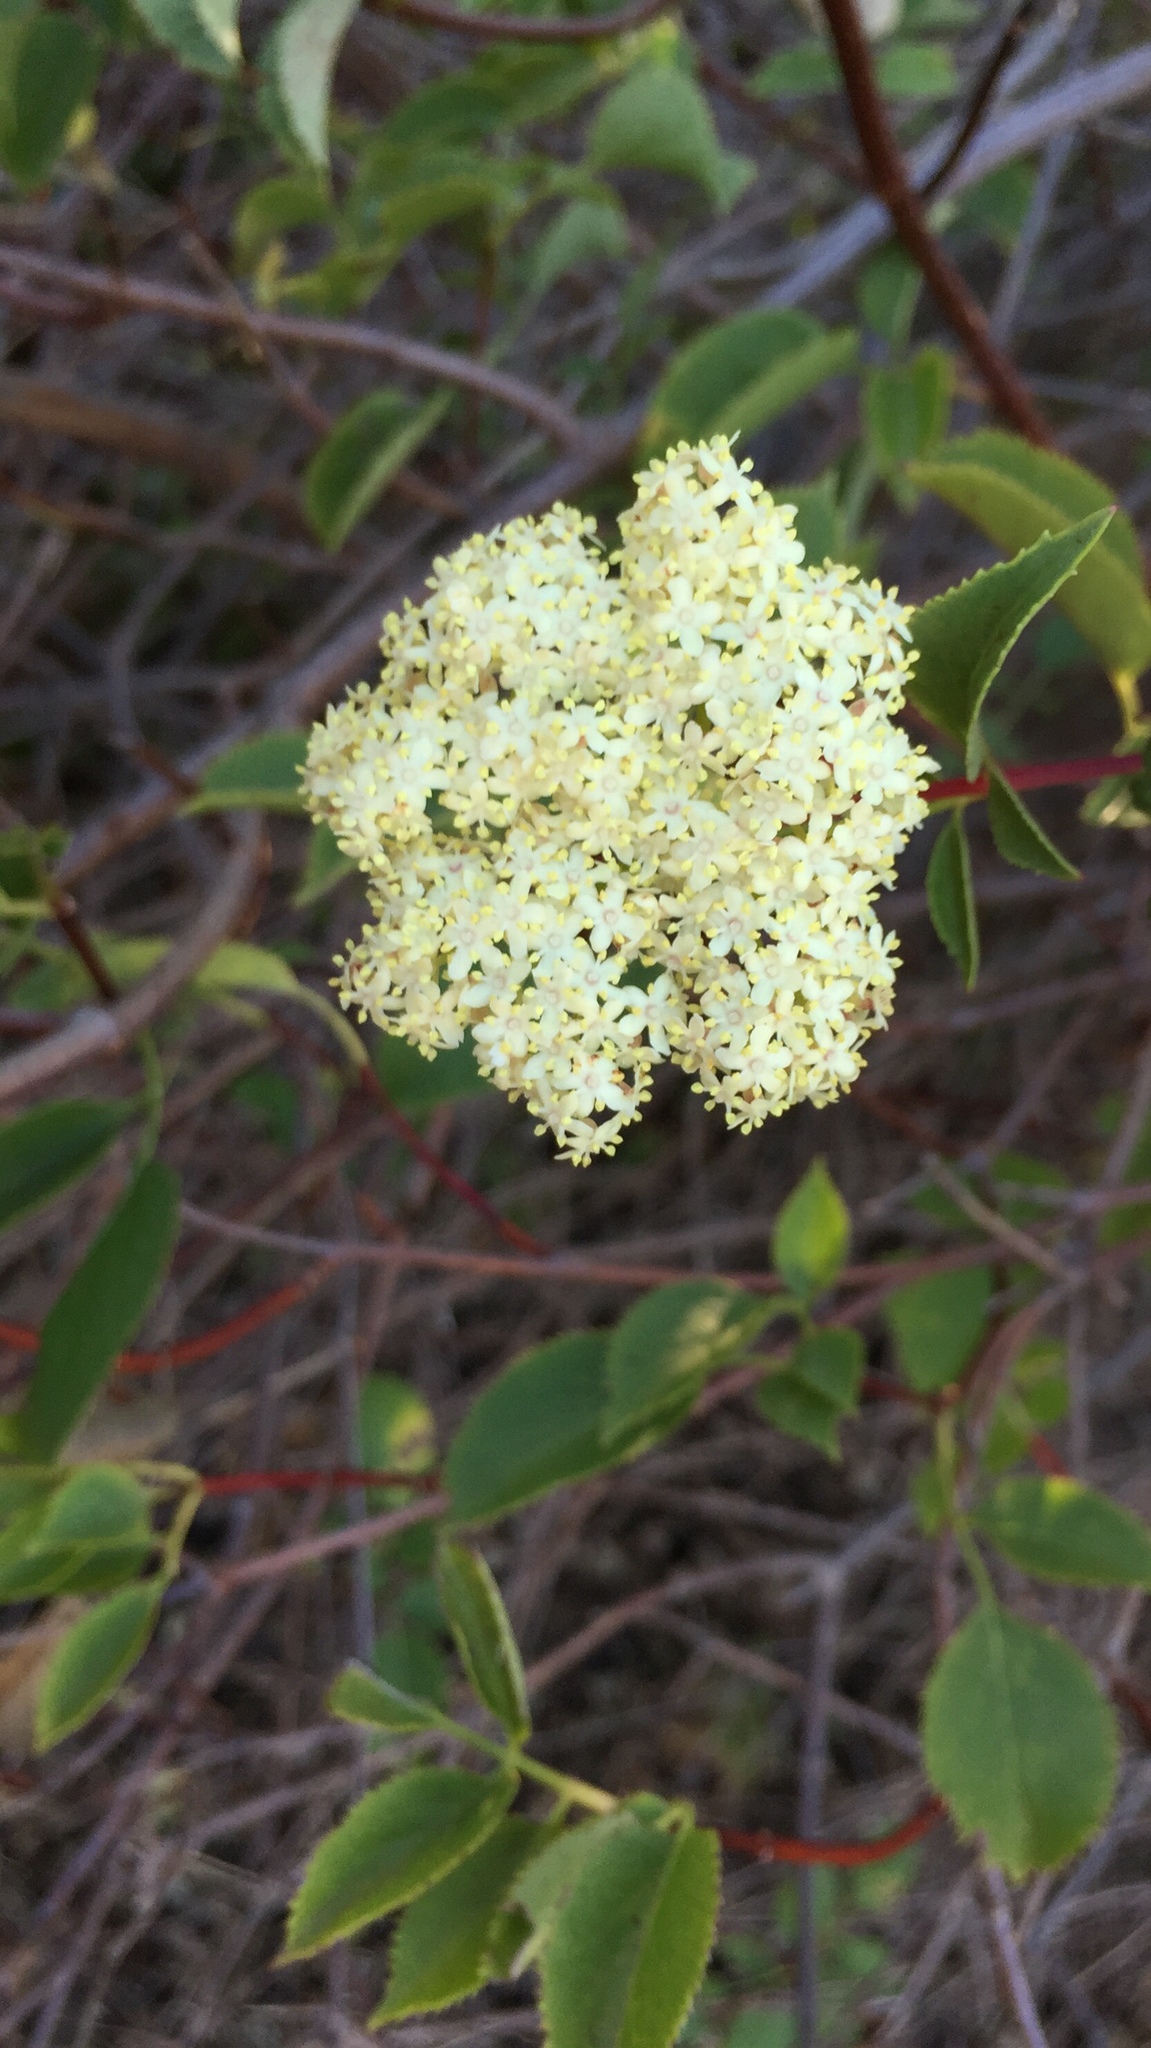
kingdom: Plantae
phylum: Tracheophyta
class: Magnoliopsida
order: Dipsacales
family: Viburnaceae
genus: Sambucus
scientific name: Sambucus cerulea
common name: Blue elder
